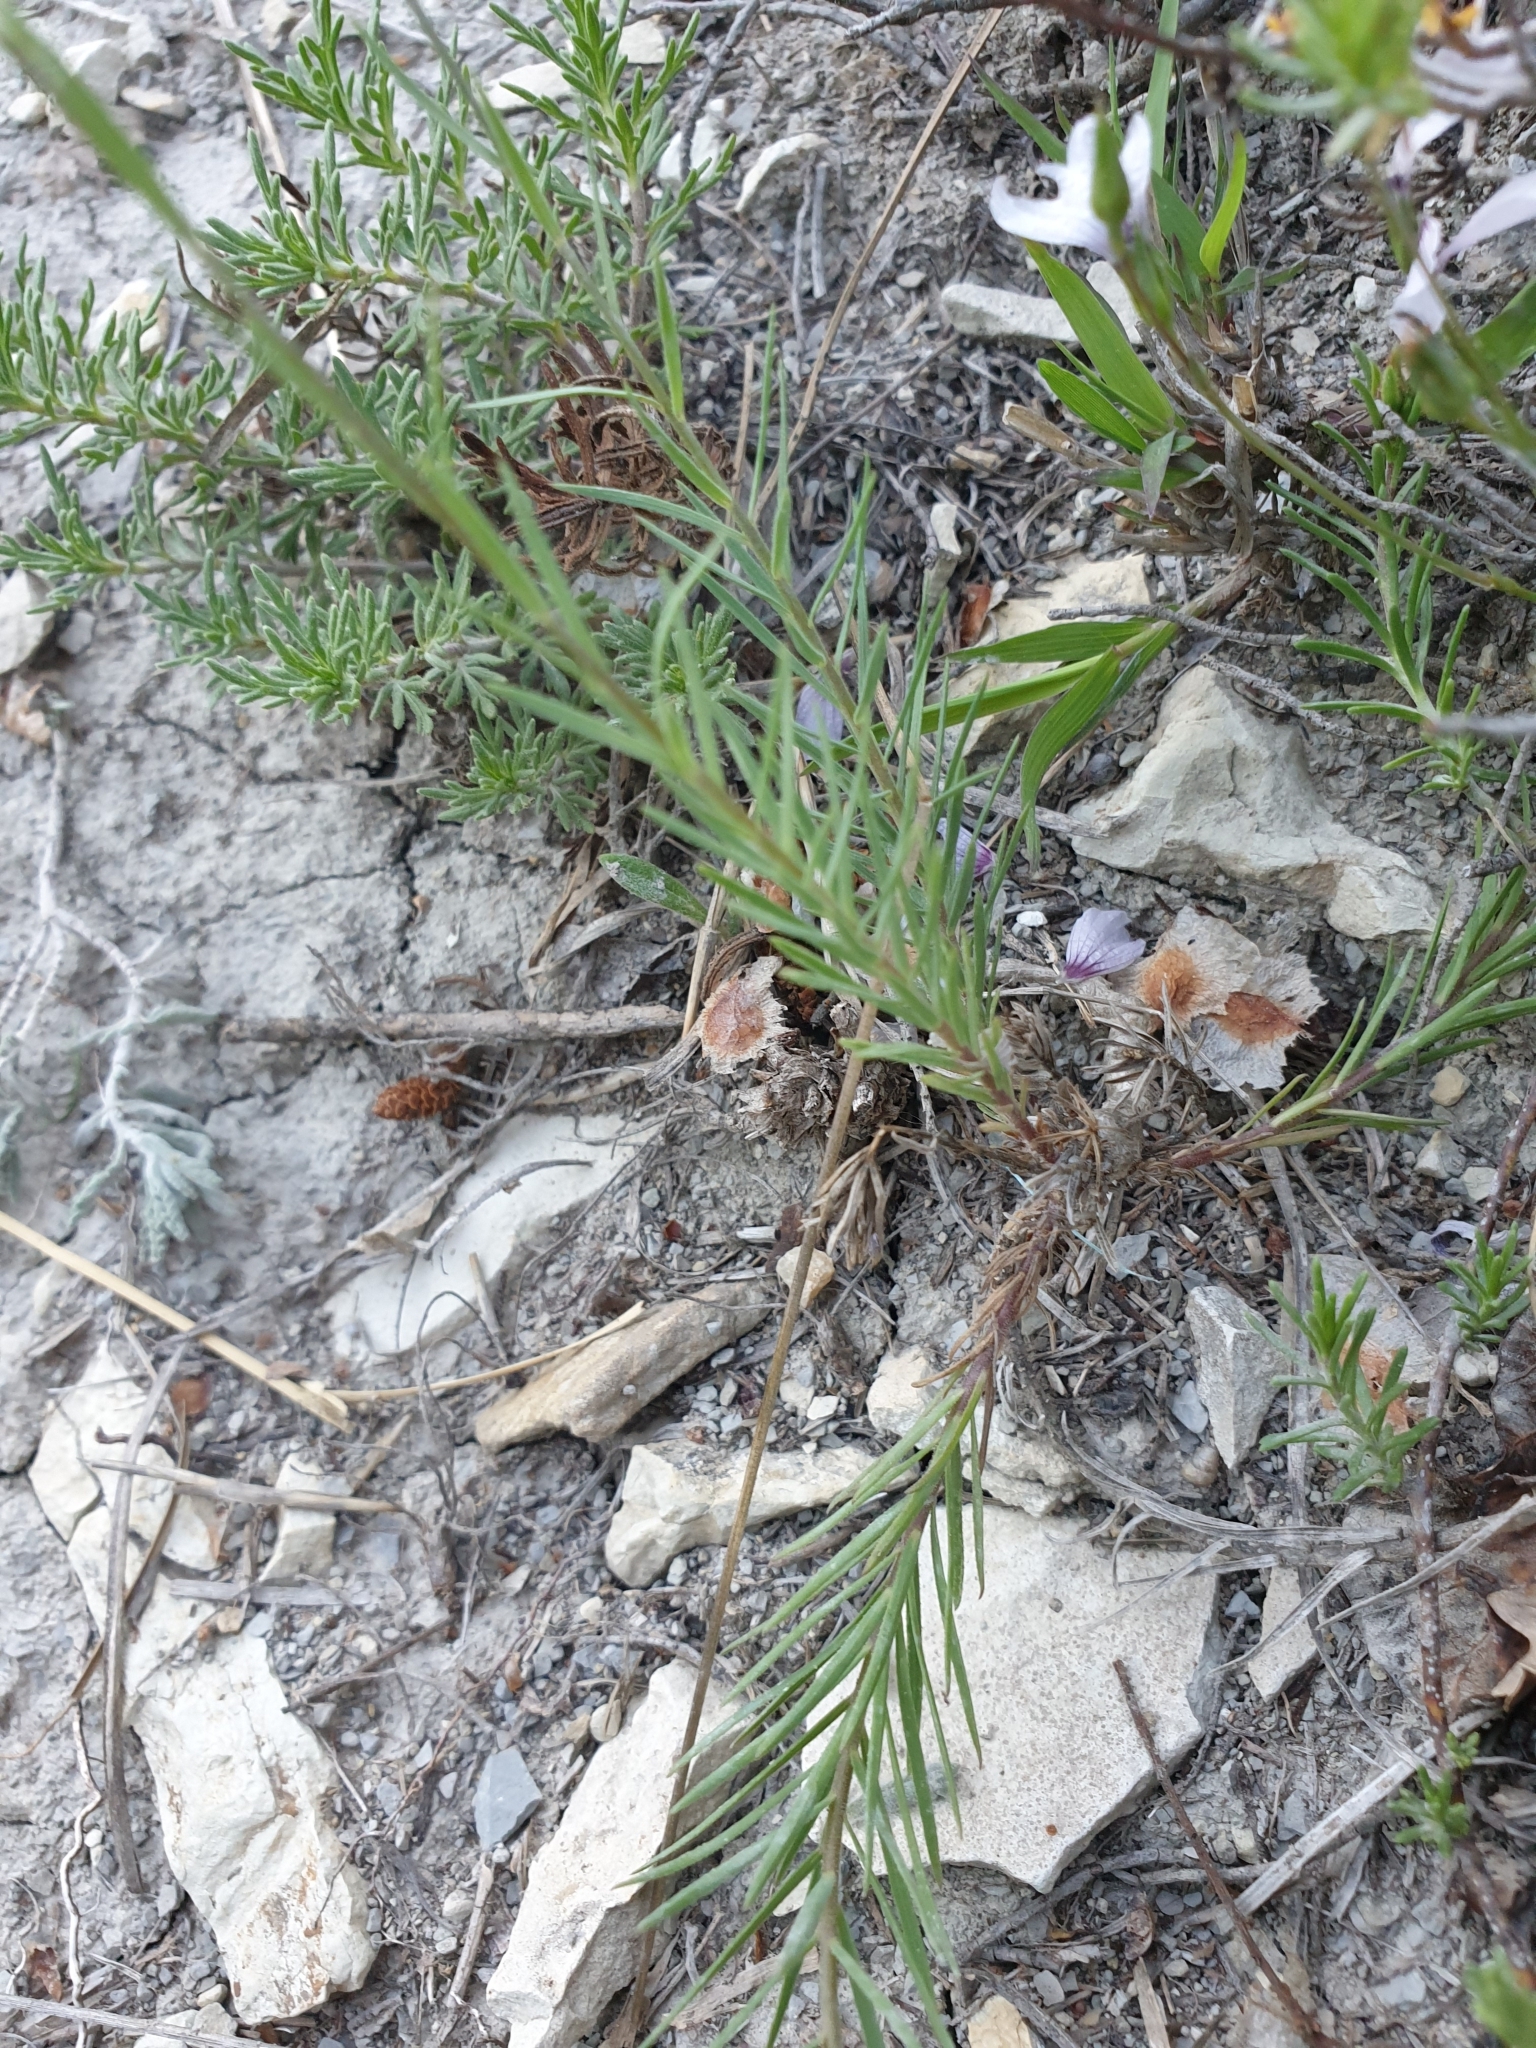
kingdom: Plantae
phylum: Tracheophyta
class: Magnoliopsida
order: Malpighiales
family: Linaceae
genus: Linum
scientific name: Linum tenuifolium
